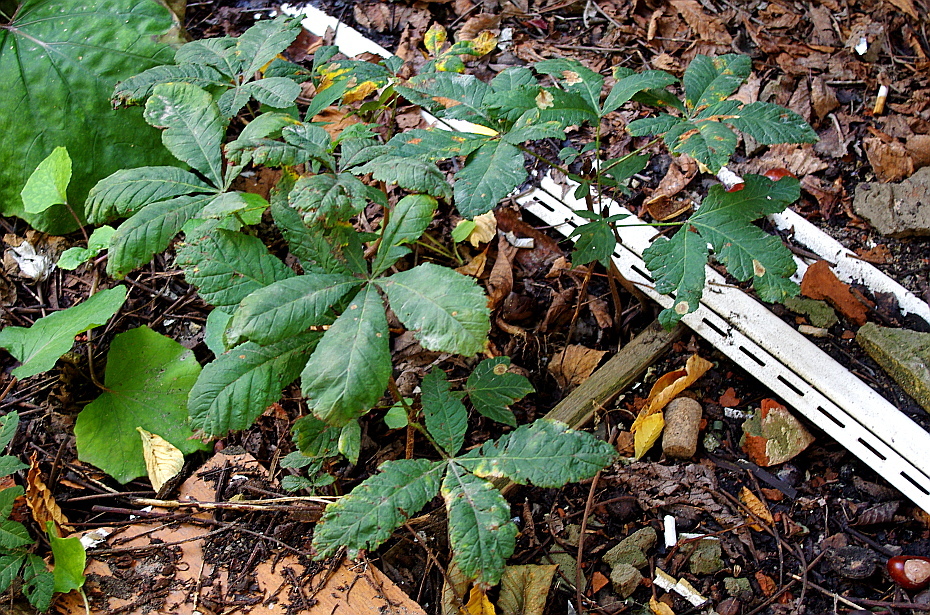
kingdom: Plantae
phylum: Tracheophyta
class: Magnoliopsida
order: Sapindales
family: Sapindaceae
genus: Aesculus
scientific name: Aesculus hippocastanum
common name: Horse-chestnut
